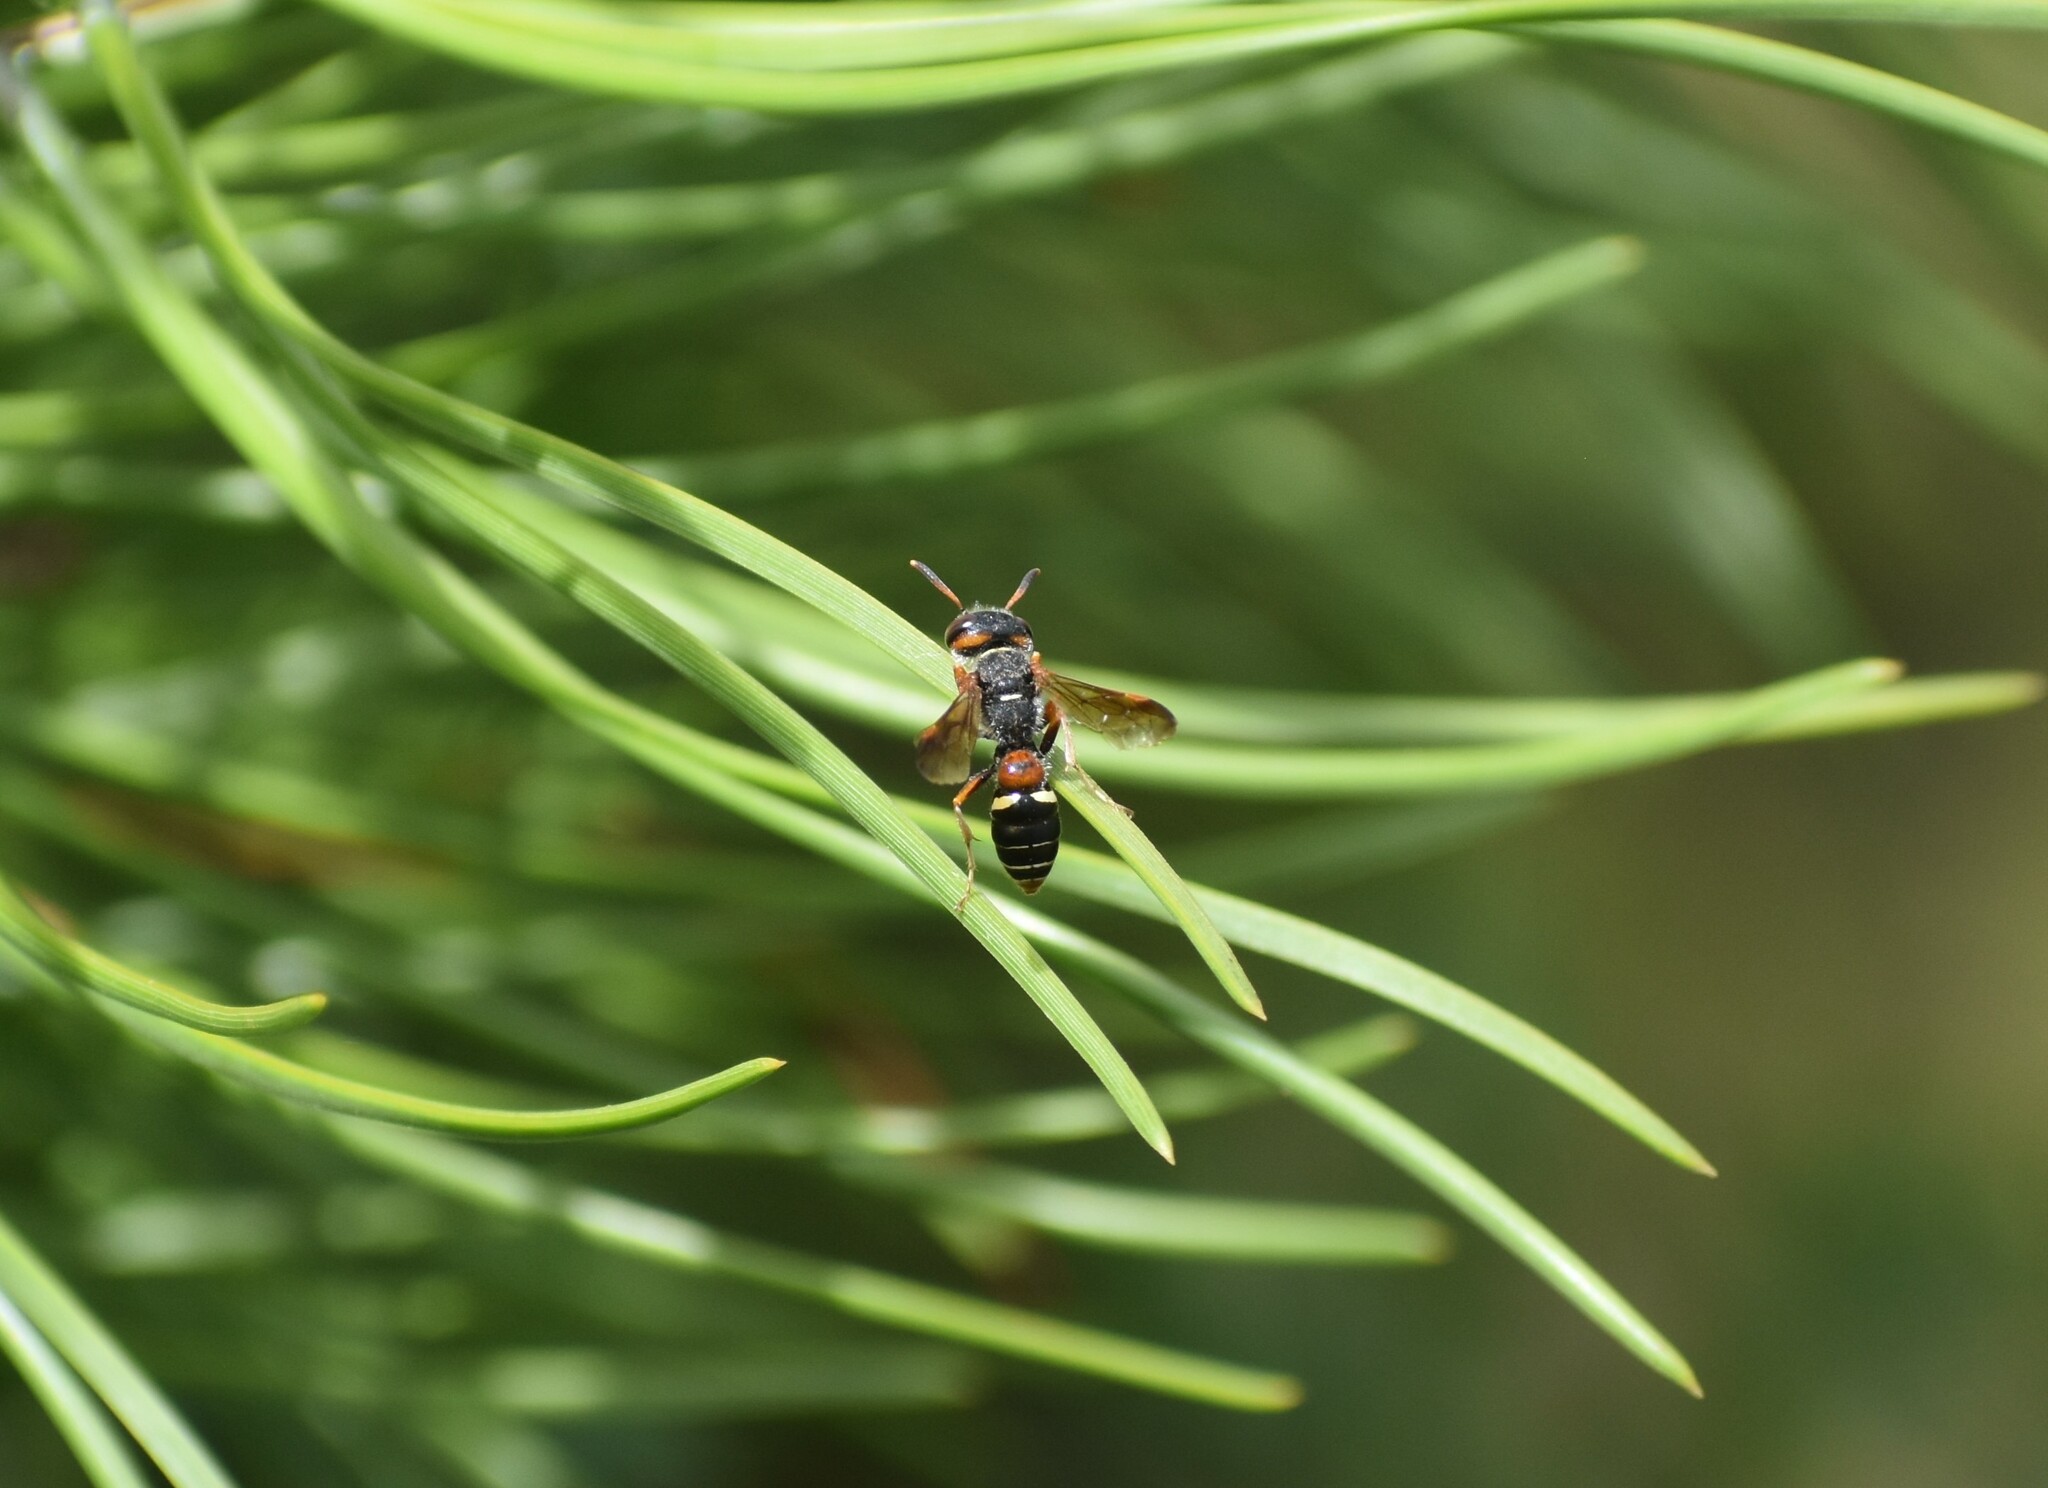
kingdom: Animalia
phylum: Arthropoda
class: Insecta
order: Hymenoptera
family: Crabronidae
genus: Philanthus
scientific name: Philanthus histrio
